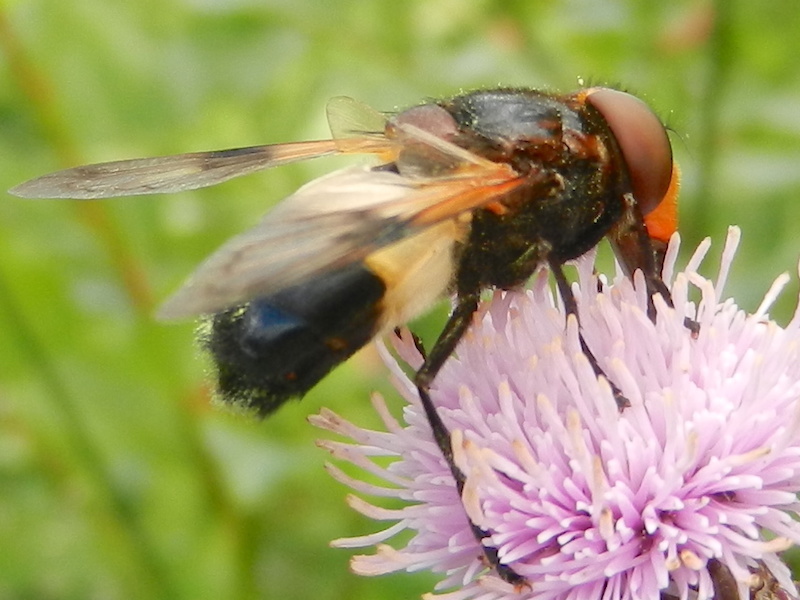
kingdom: Animalia
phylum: Arthropoda
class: Insecta
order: Diptera
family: Syrphidae
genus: Volucella
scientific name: Volucella pellucens
